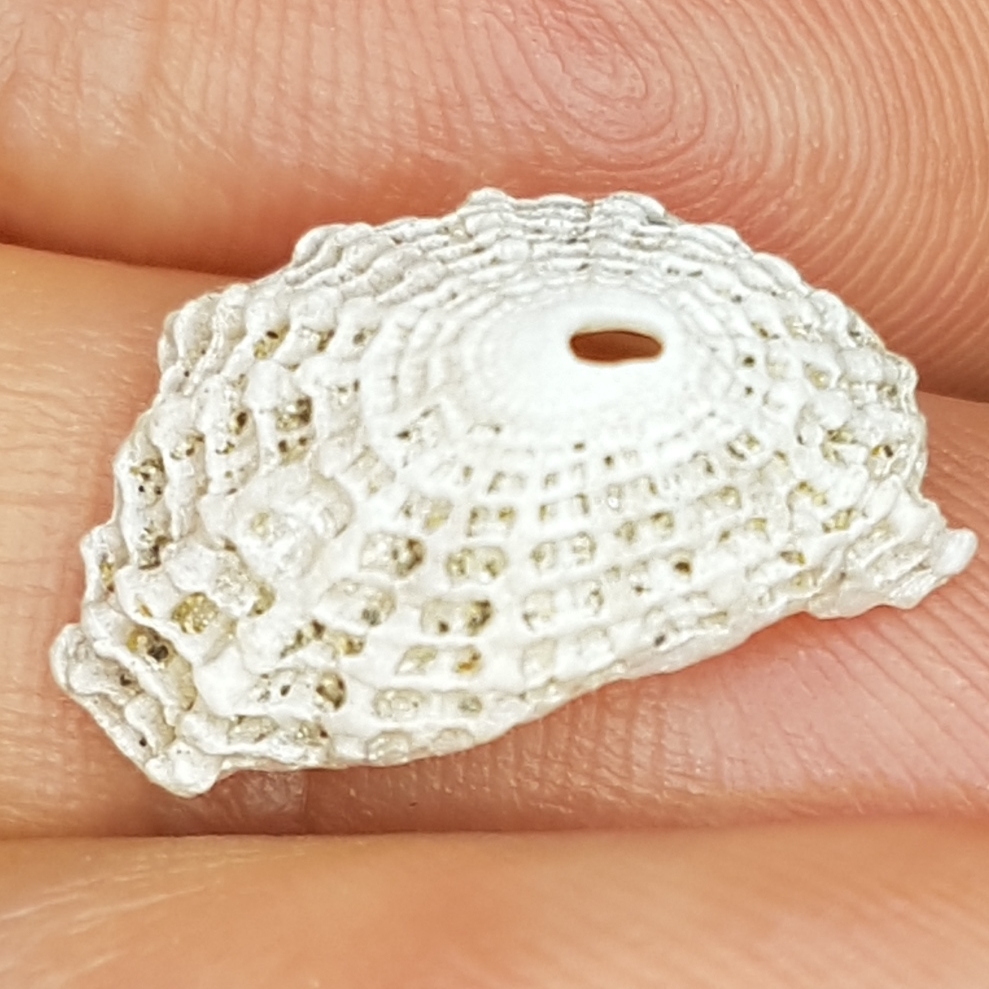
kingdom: Animalia
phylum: Mollusca
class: Gastropoda
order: Lepetellida
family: Fissurellidae
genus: Diodora
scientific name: Diodora graeca
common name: Common keyhole limpet
